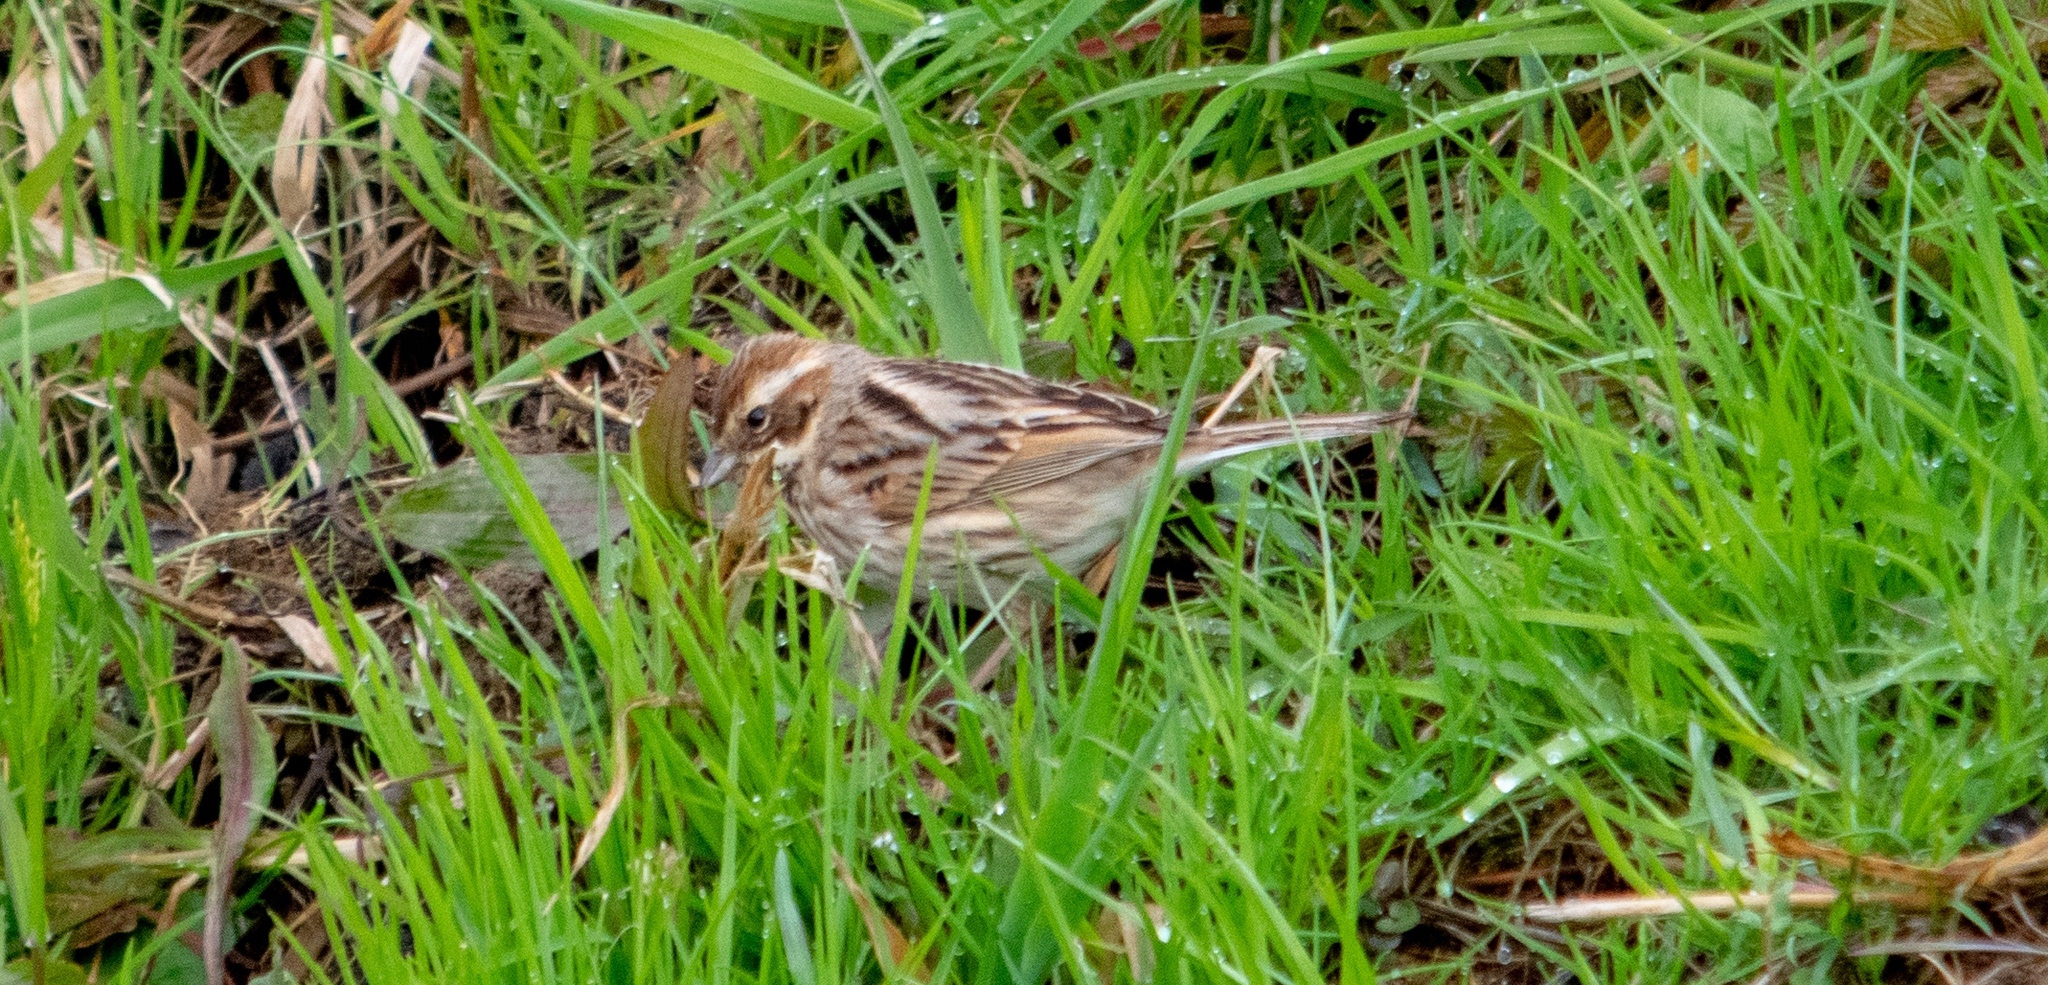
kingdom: Animalia
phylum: Chordata
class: Aves
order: Passeriformes
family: Emberizidae
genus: Emberiza
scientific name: Emberiza schoeniclus
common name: Reed bunting
